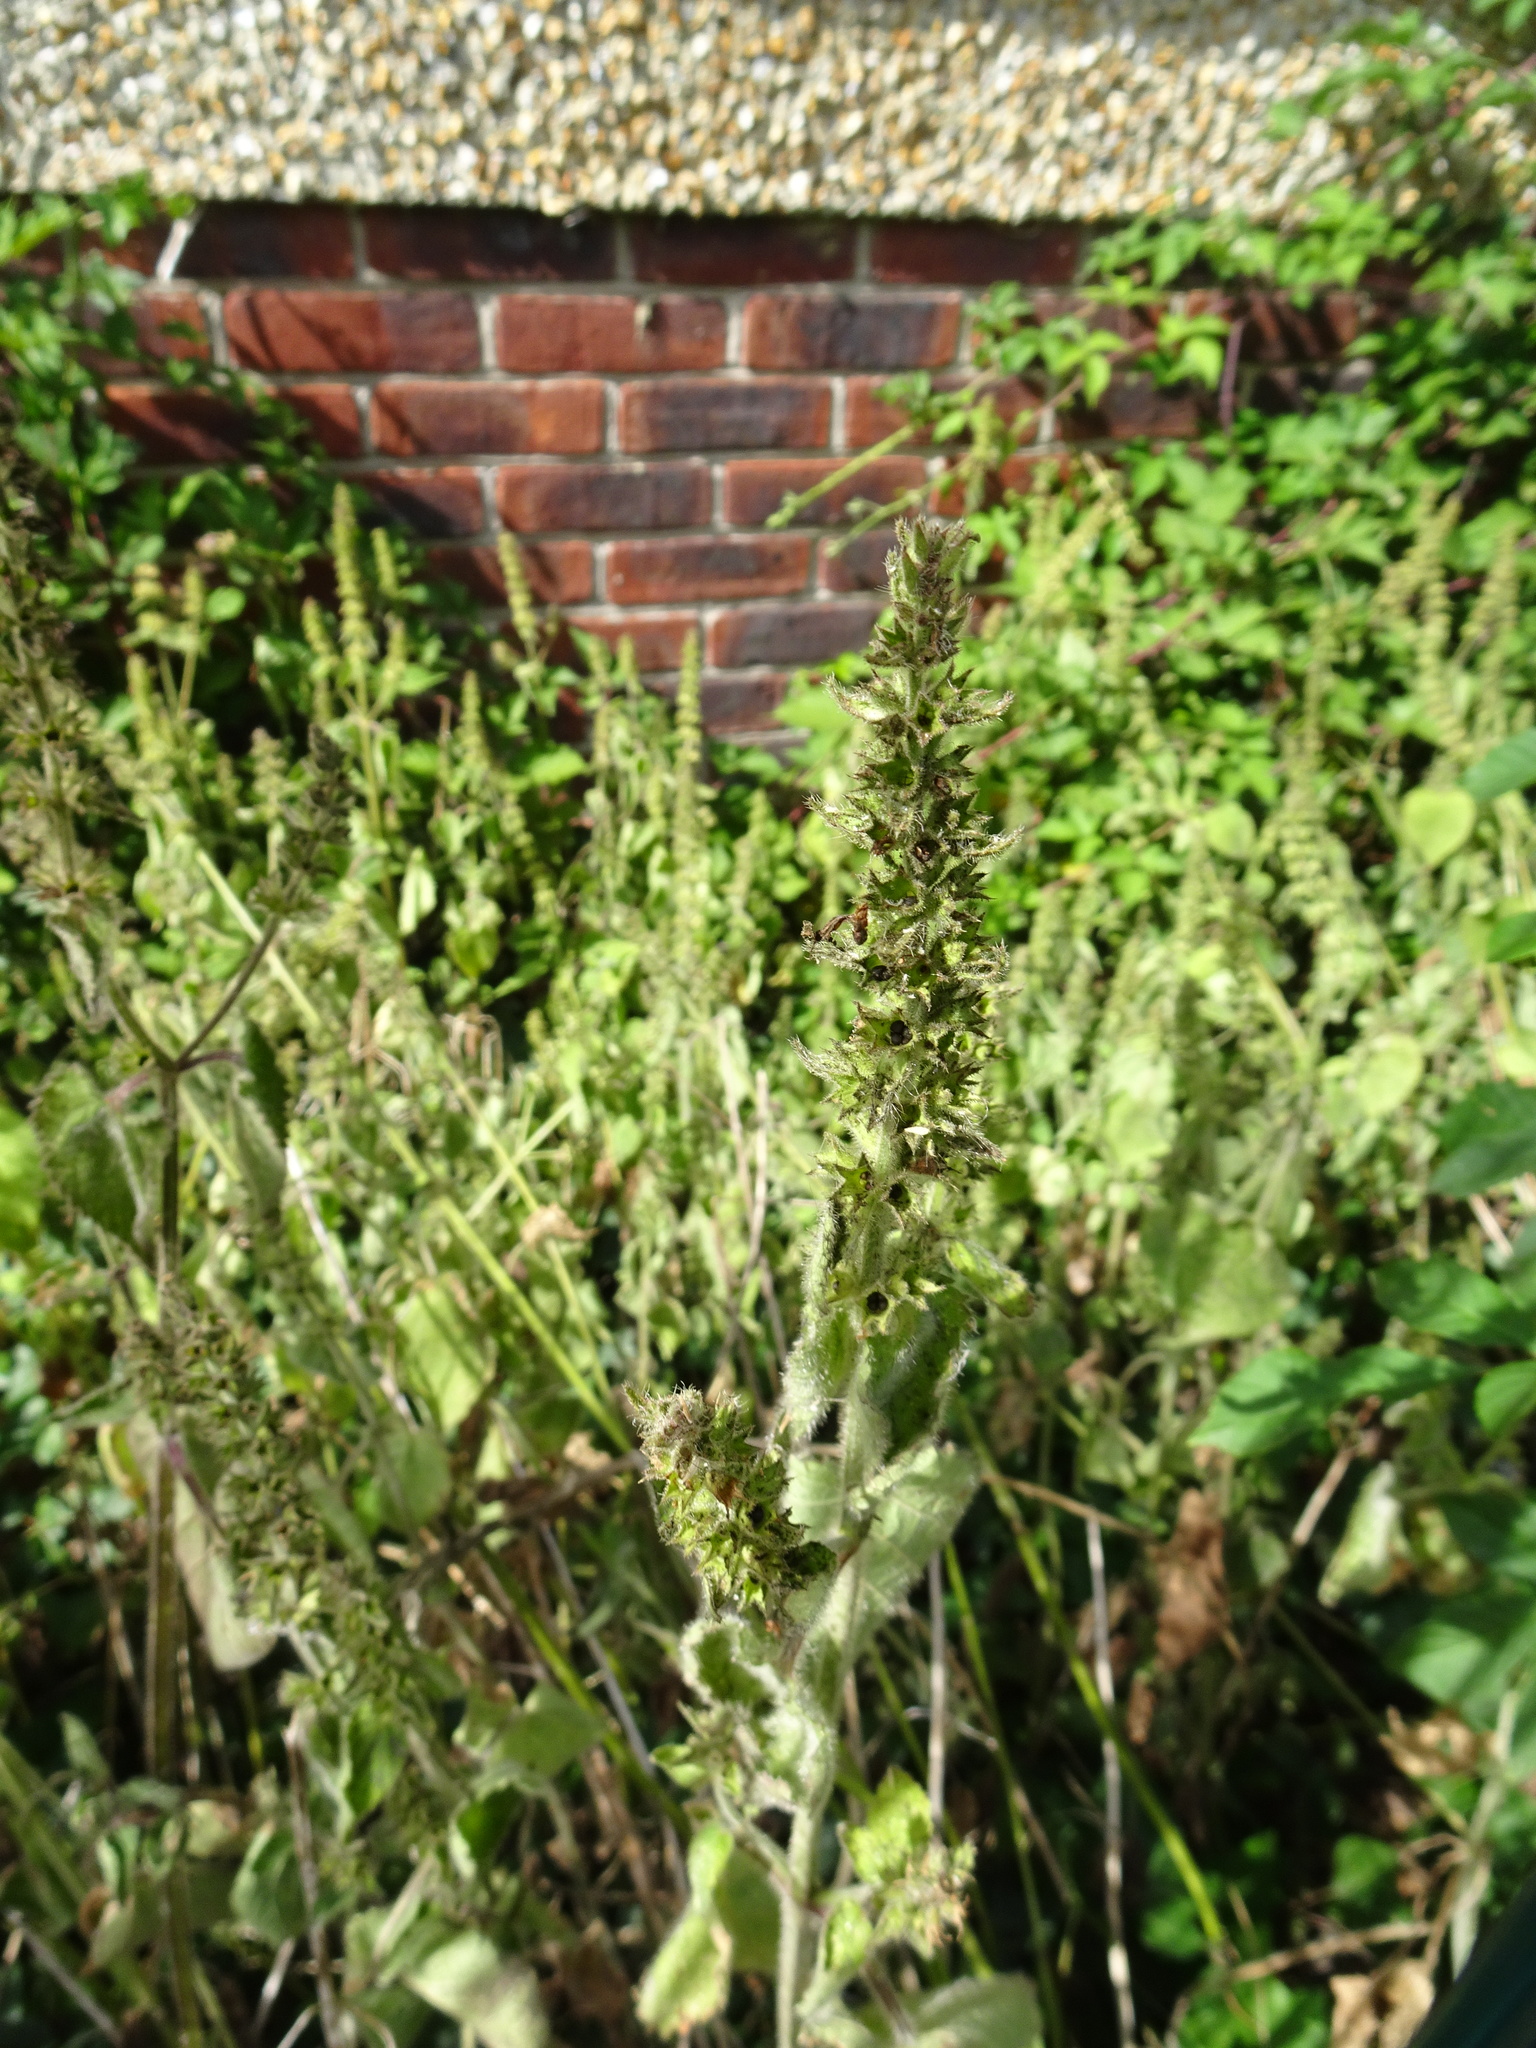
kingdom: Plantae
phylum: Tracheophyta
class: Magnoliopsida
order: Lamiales
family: Lamiaceae
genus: Stachys
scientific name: Stachys sylvatica
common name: Hedge woundwort
